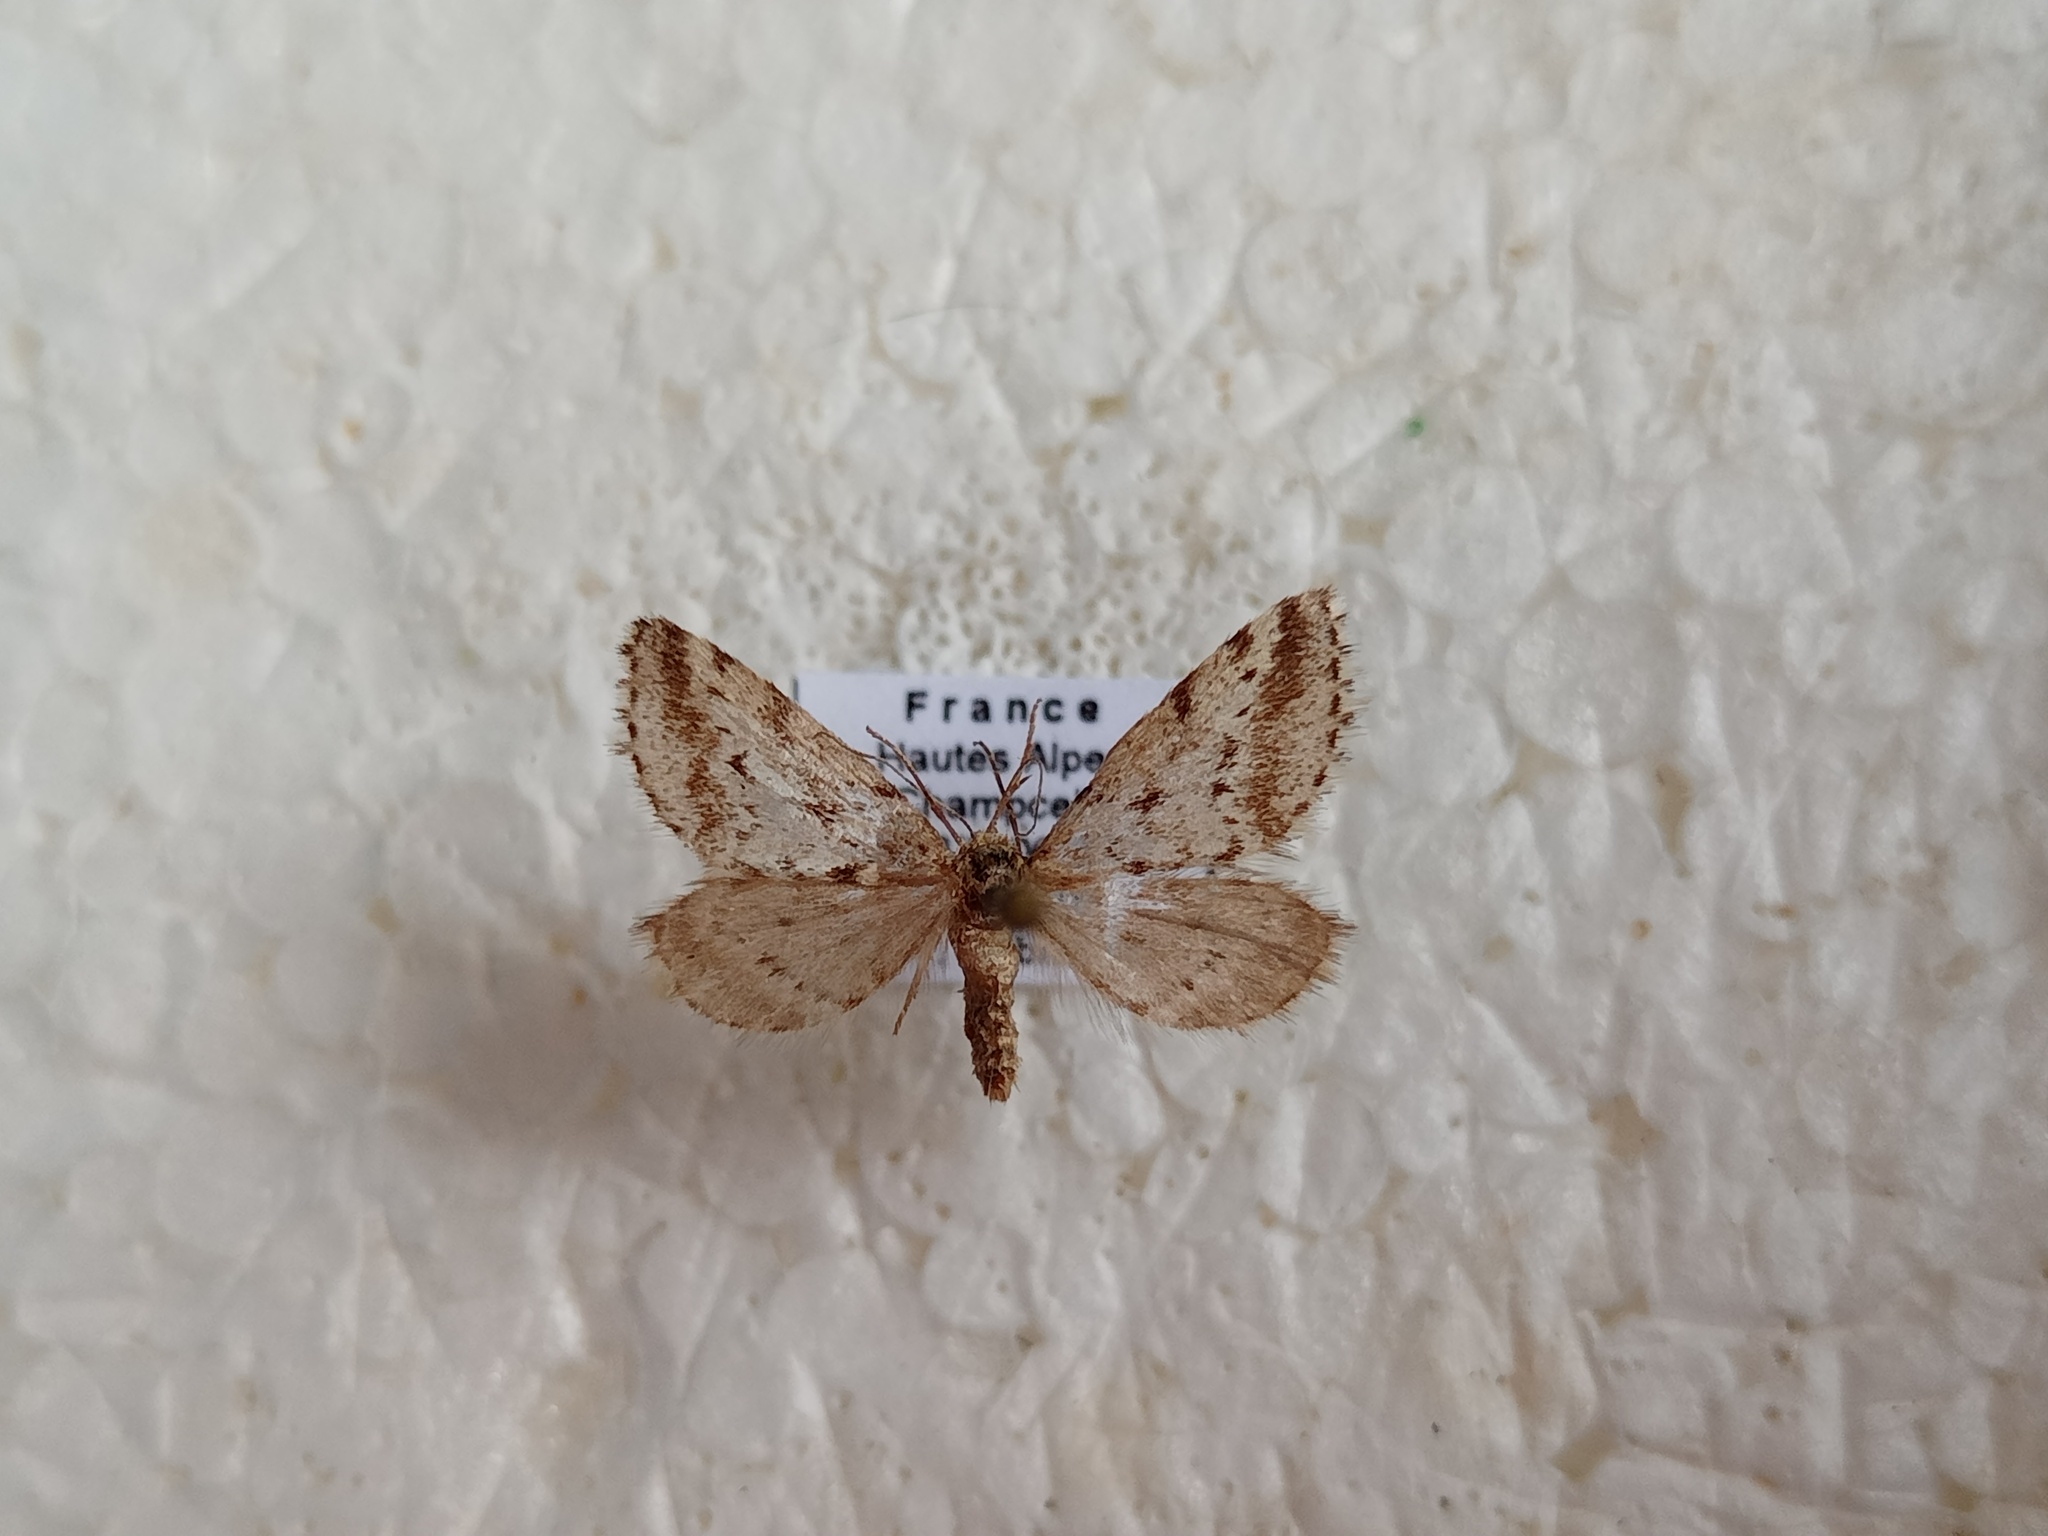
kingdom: Animalia
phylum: Arthropoda
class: Insecta
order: Lepidoptera
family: Geometridae
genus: Tephronia
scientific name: Tephronia oranaria
